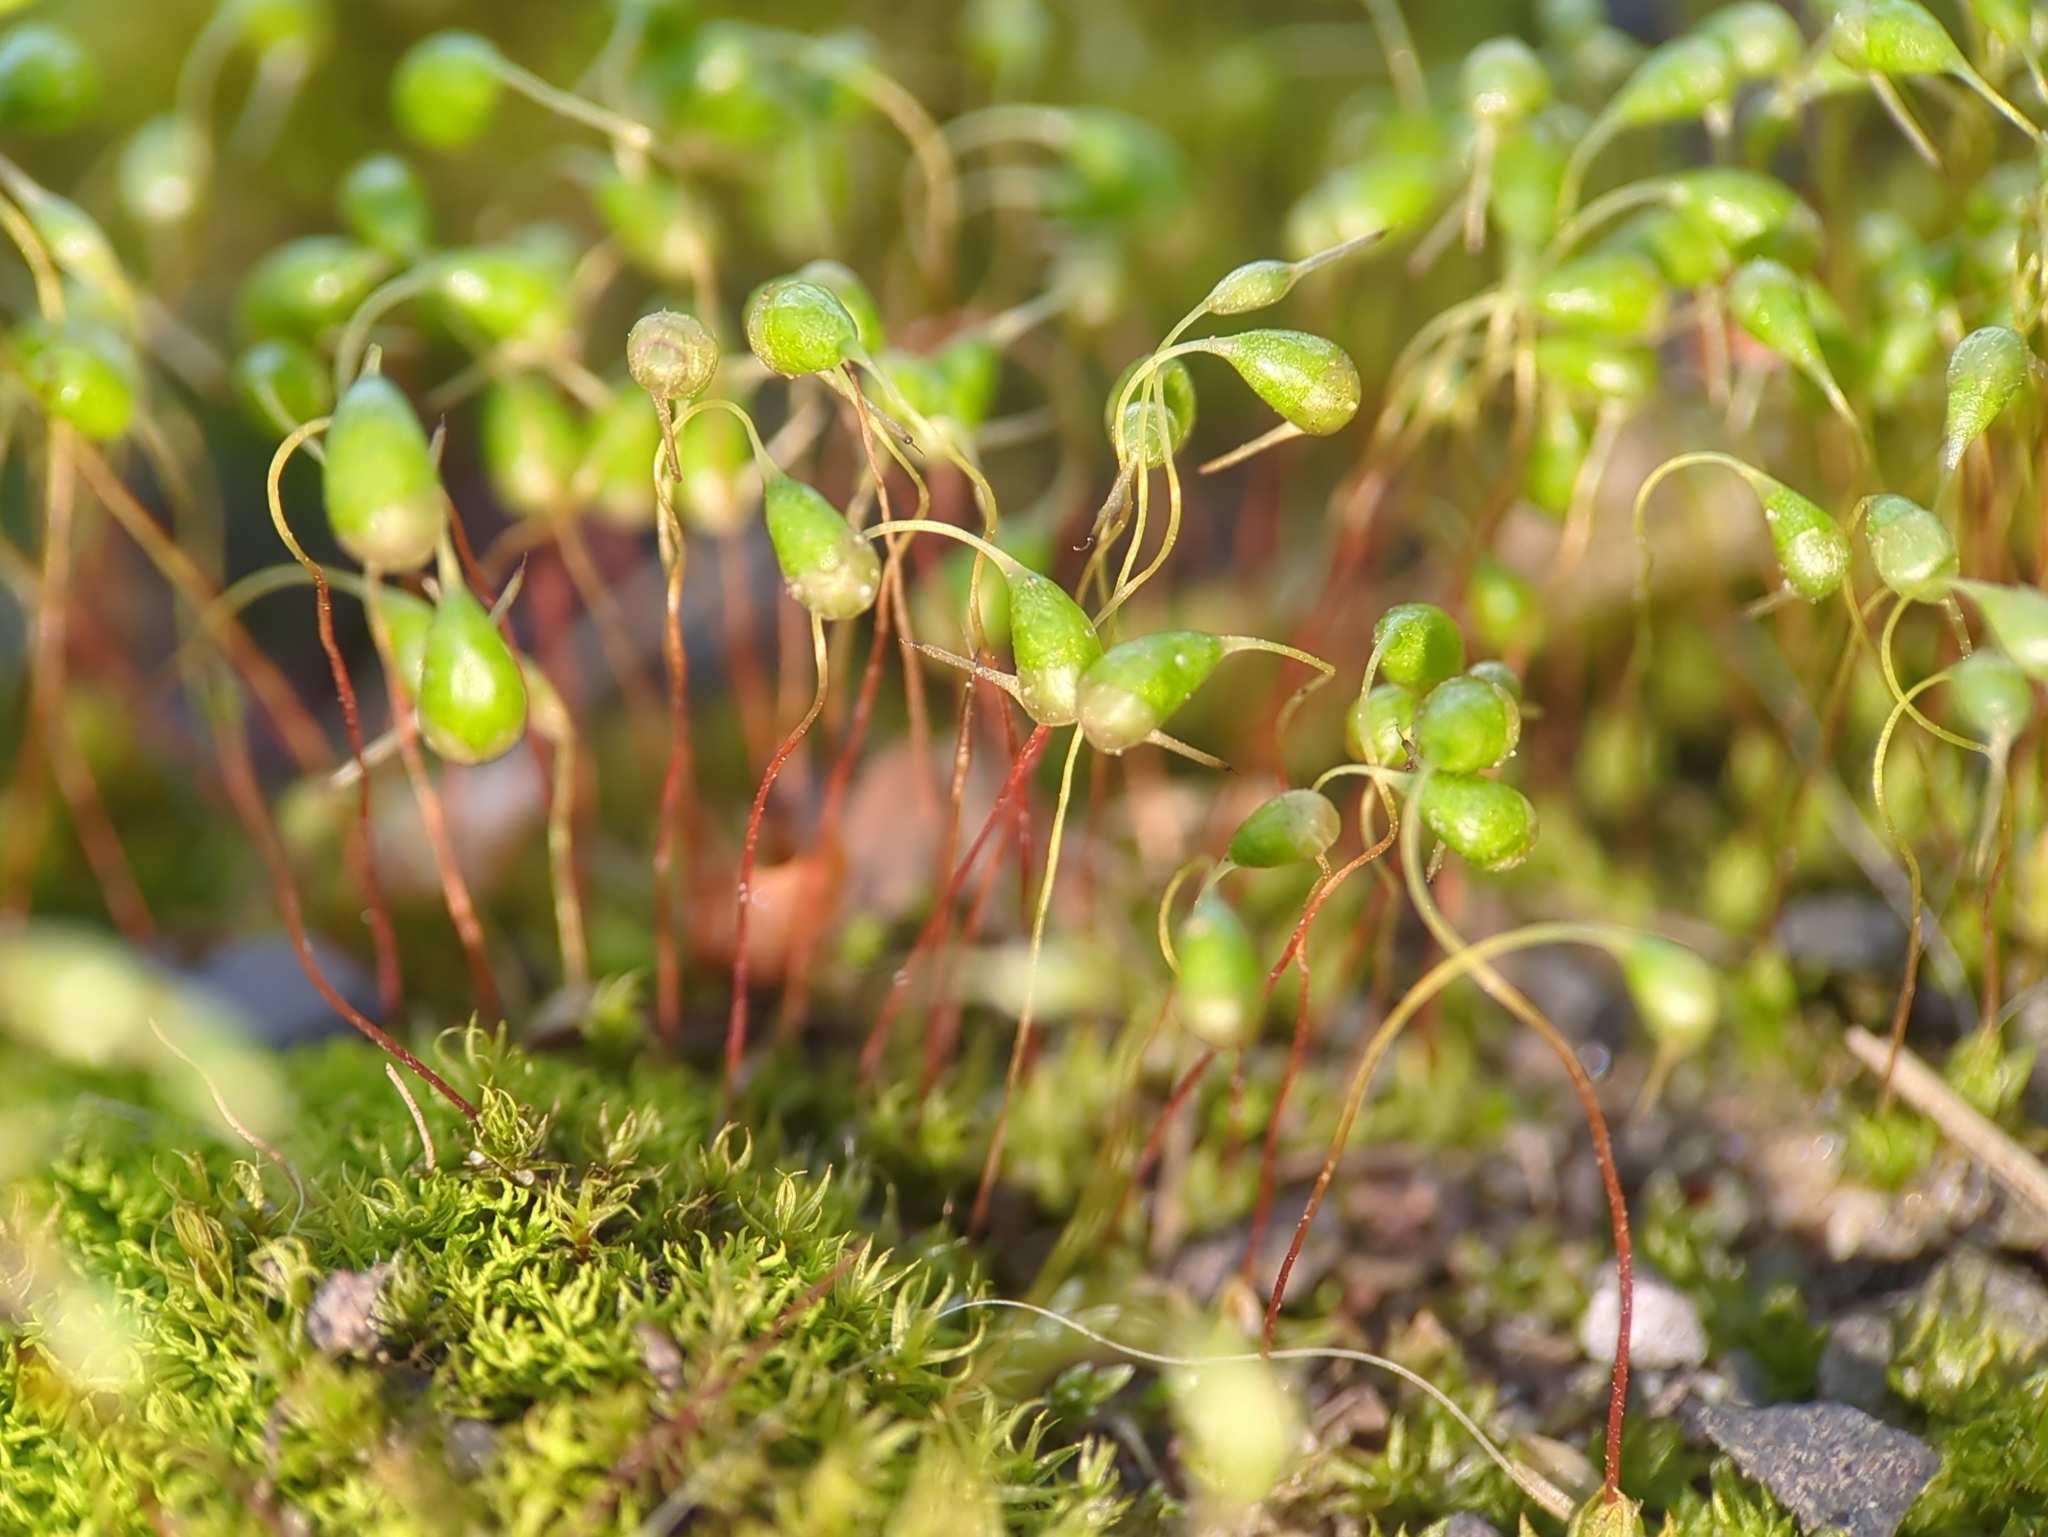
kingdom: Plantae
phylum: Bryophyta
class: Bryopsida
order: Funariales
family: Funariaceae
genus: Funaria
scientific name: Funaria hygrometrica
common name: Common cord moss
